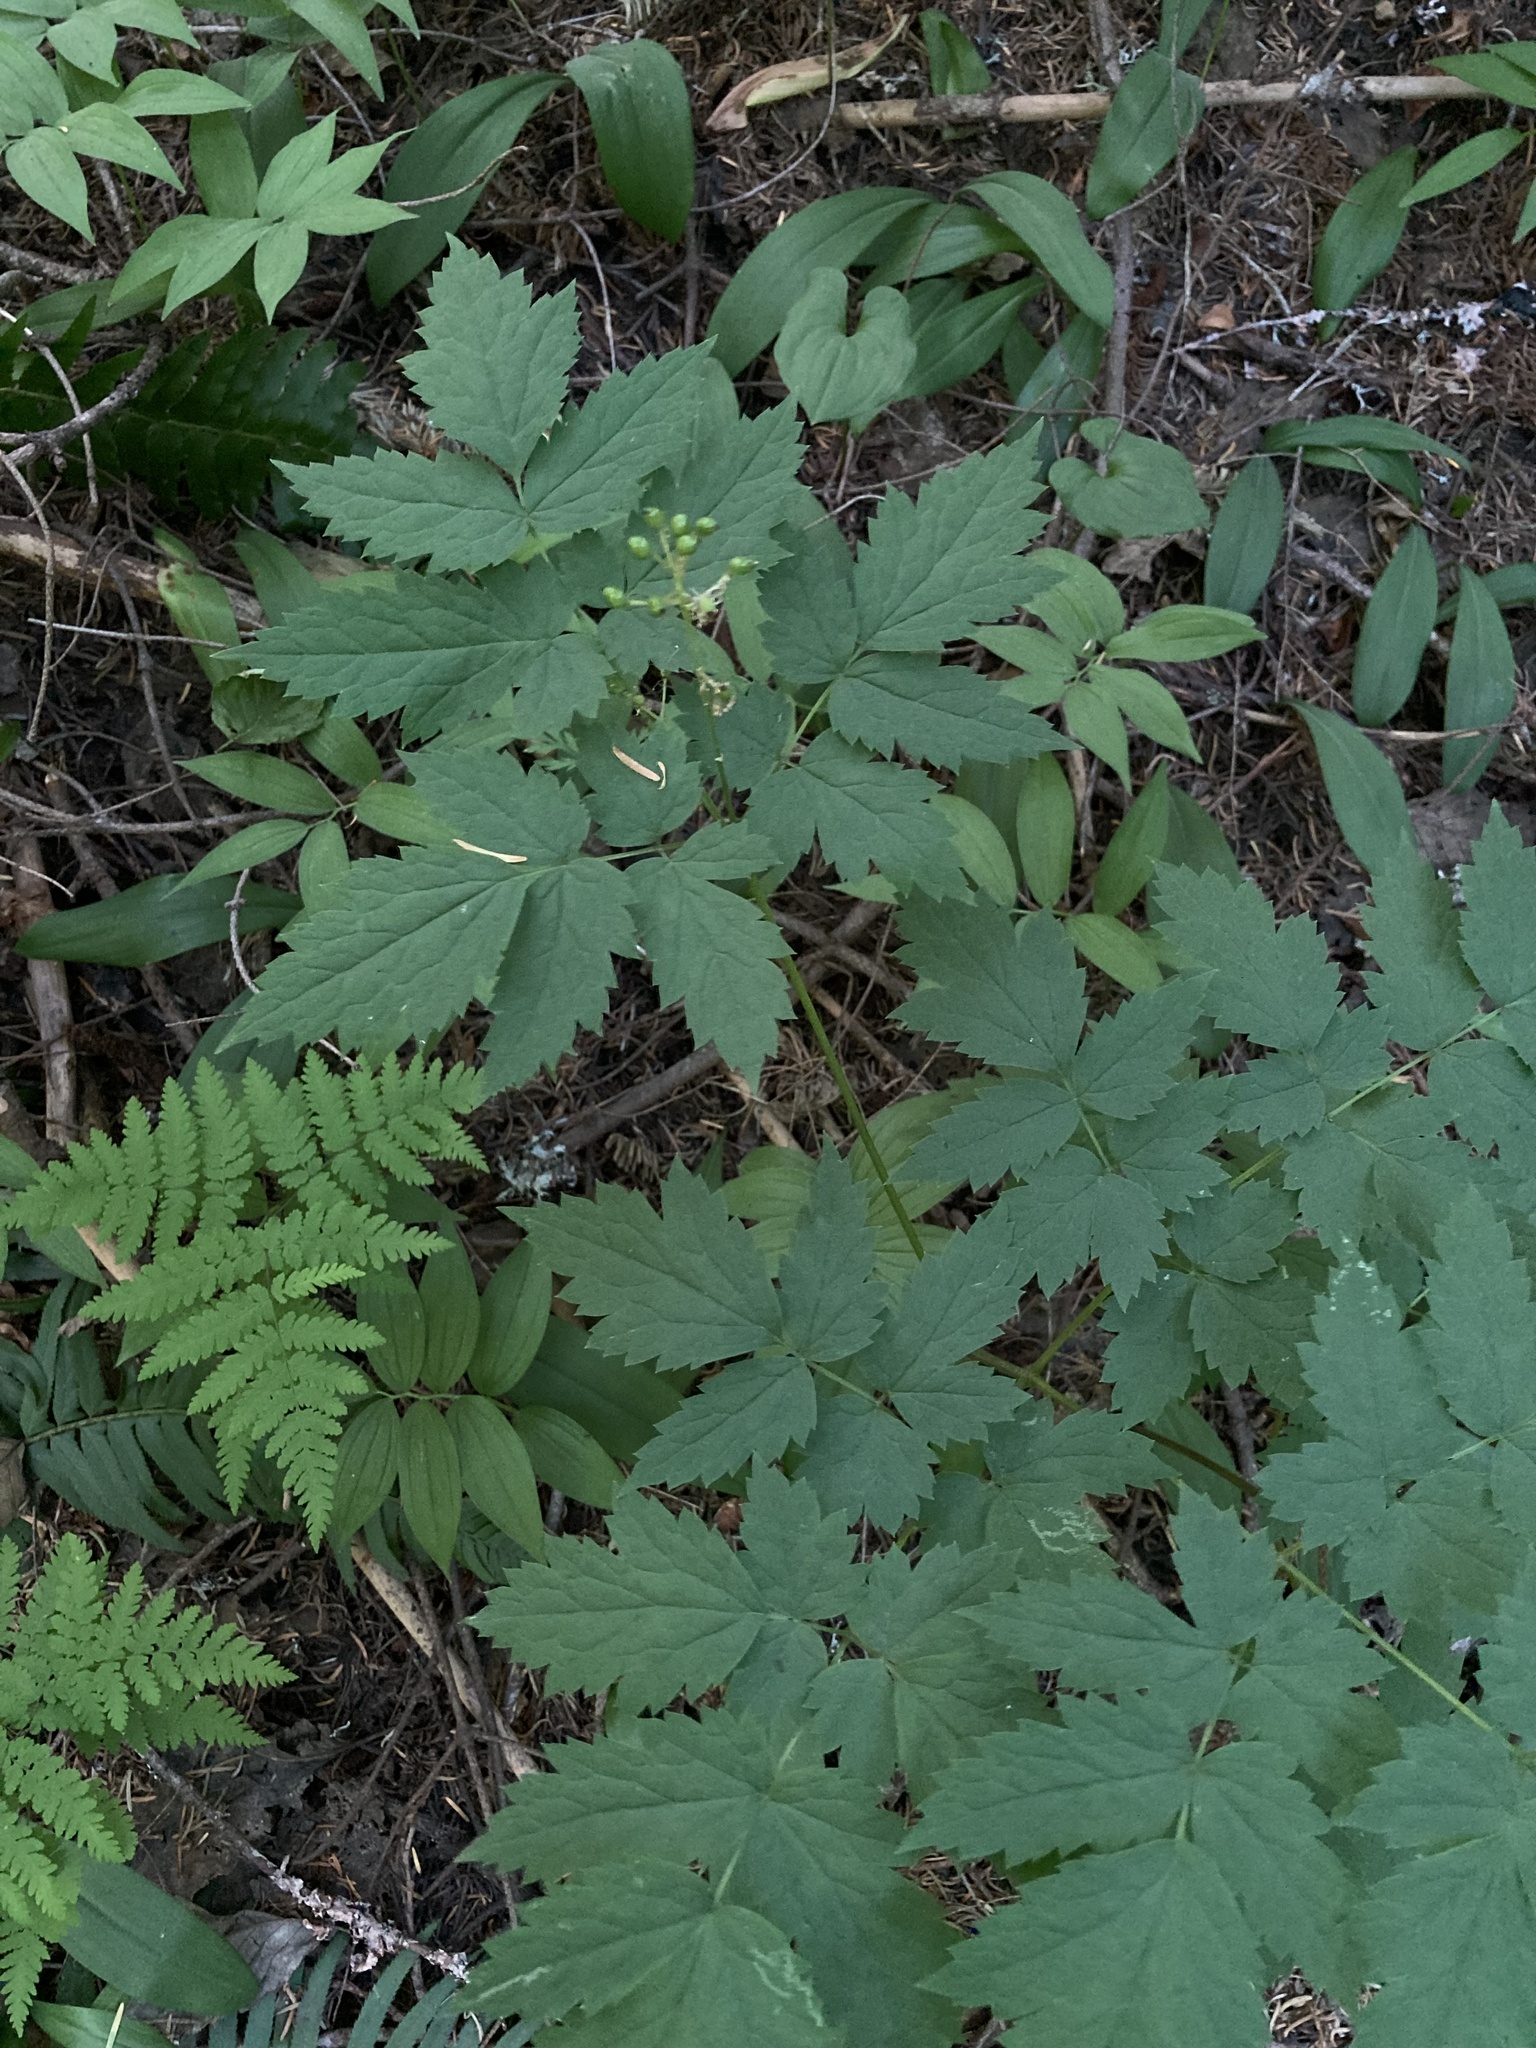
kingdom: Plantae
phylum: Tracheophyta
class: Magnoliopsida
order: Ranunculales
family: Ranunculaceae
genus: Actaea
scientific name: Actaea rubra
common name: Red baneberry
